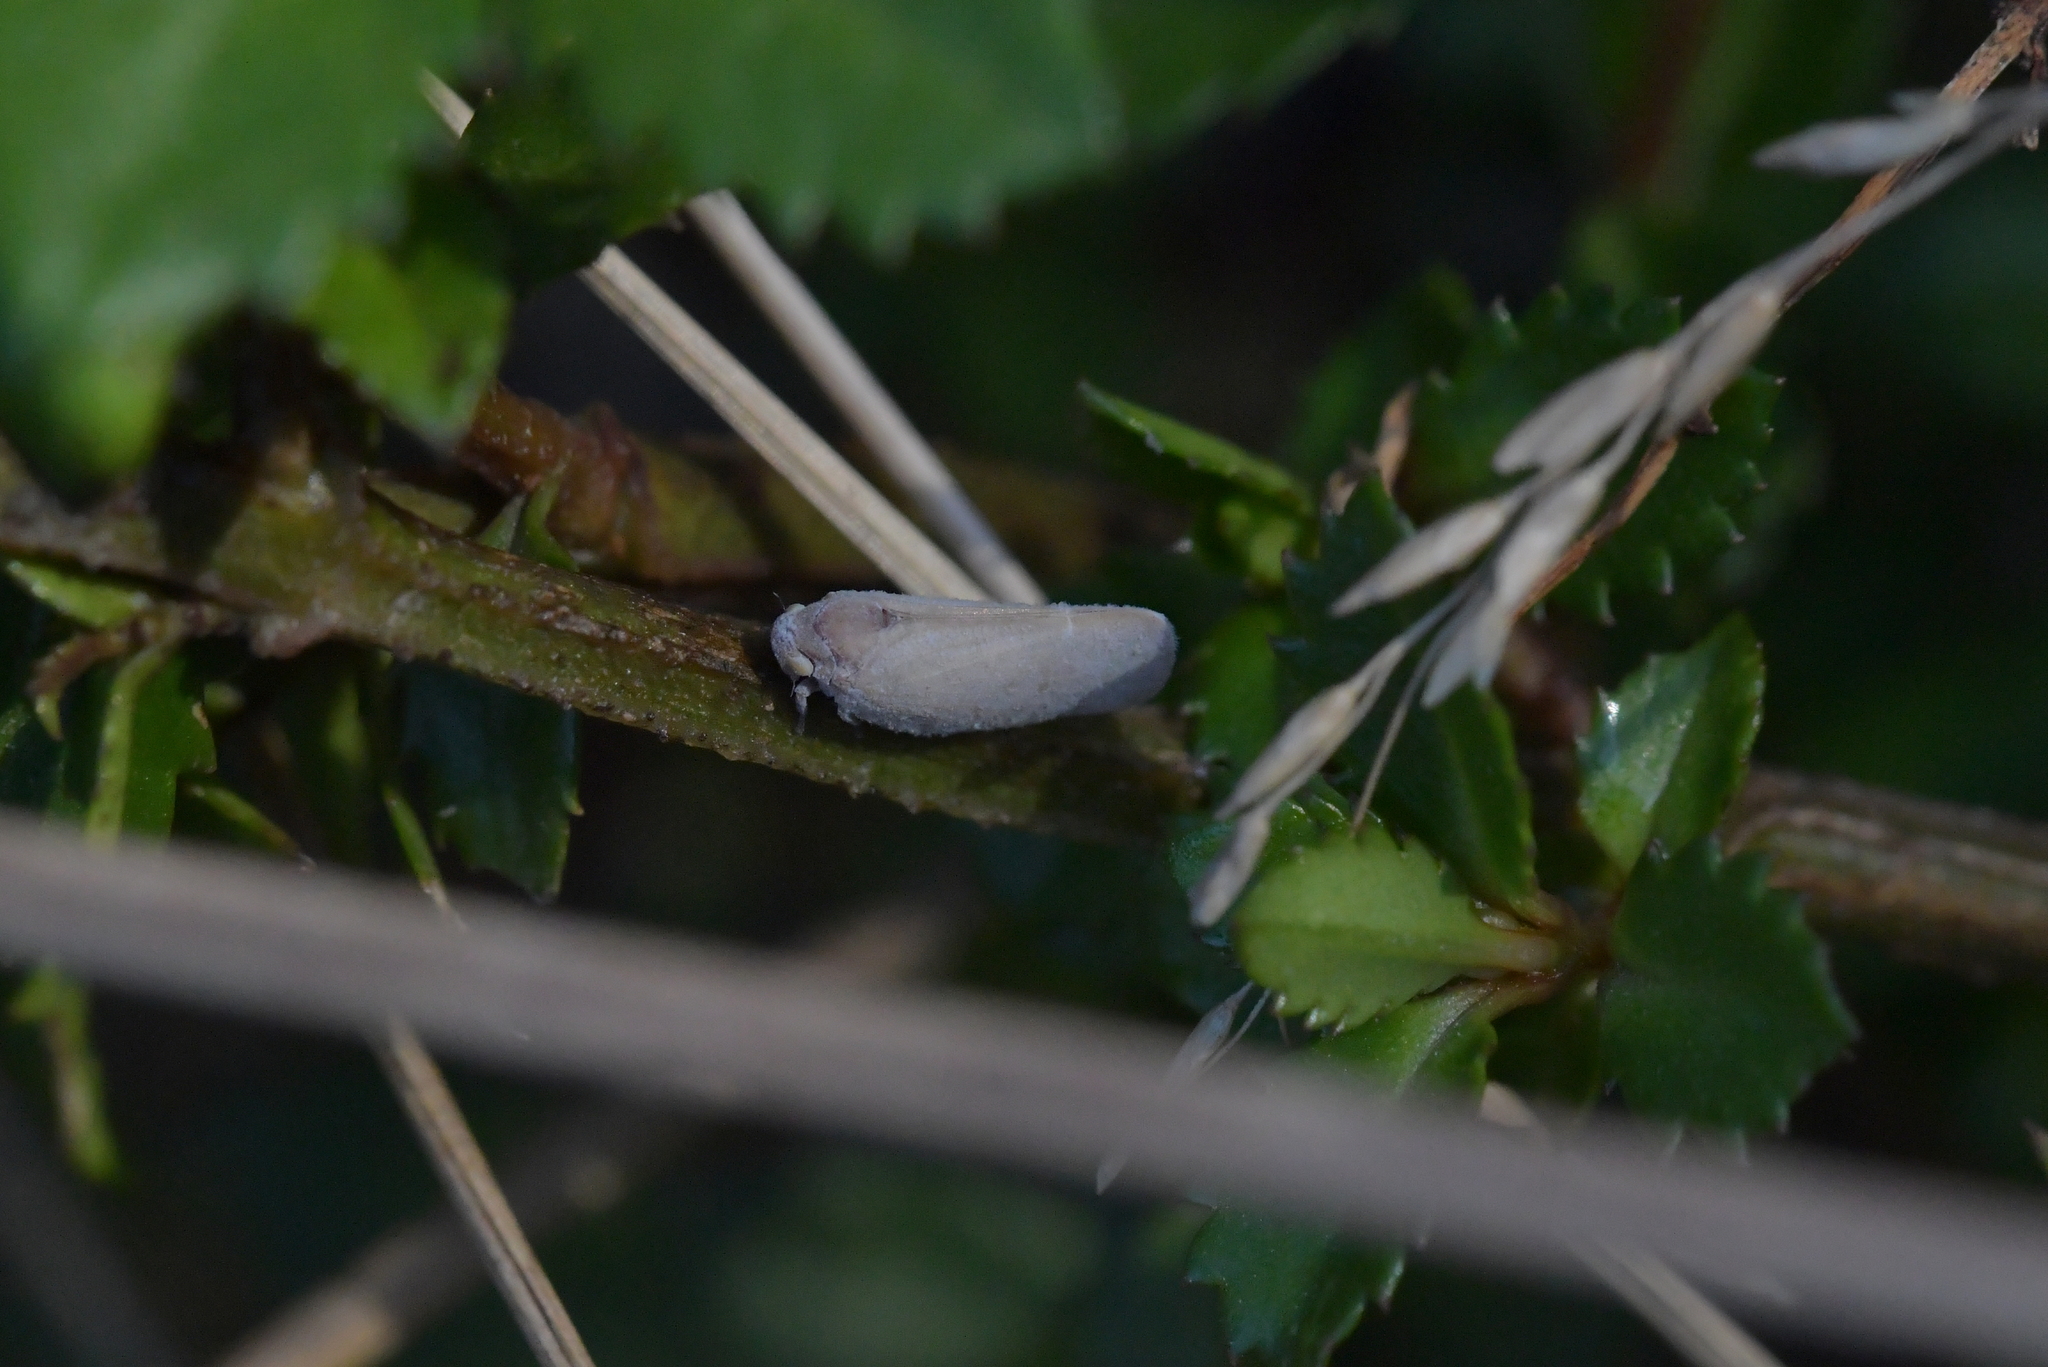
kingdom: Animalia
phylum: Arthropoda
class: Insecta
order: Hemiptera
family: Flatidae
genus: Anzora
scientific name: Anzora unicolor
